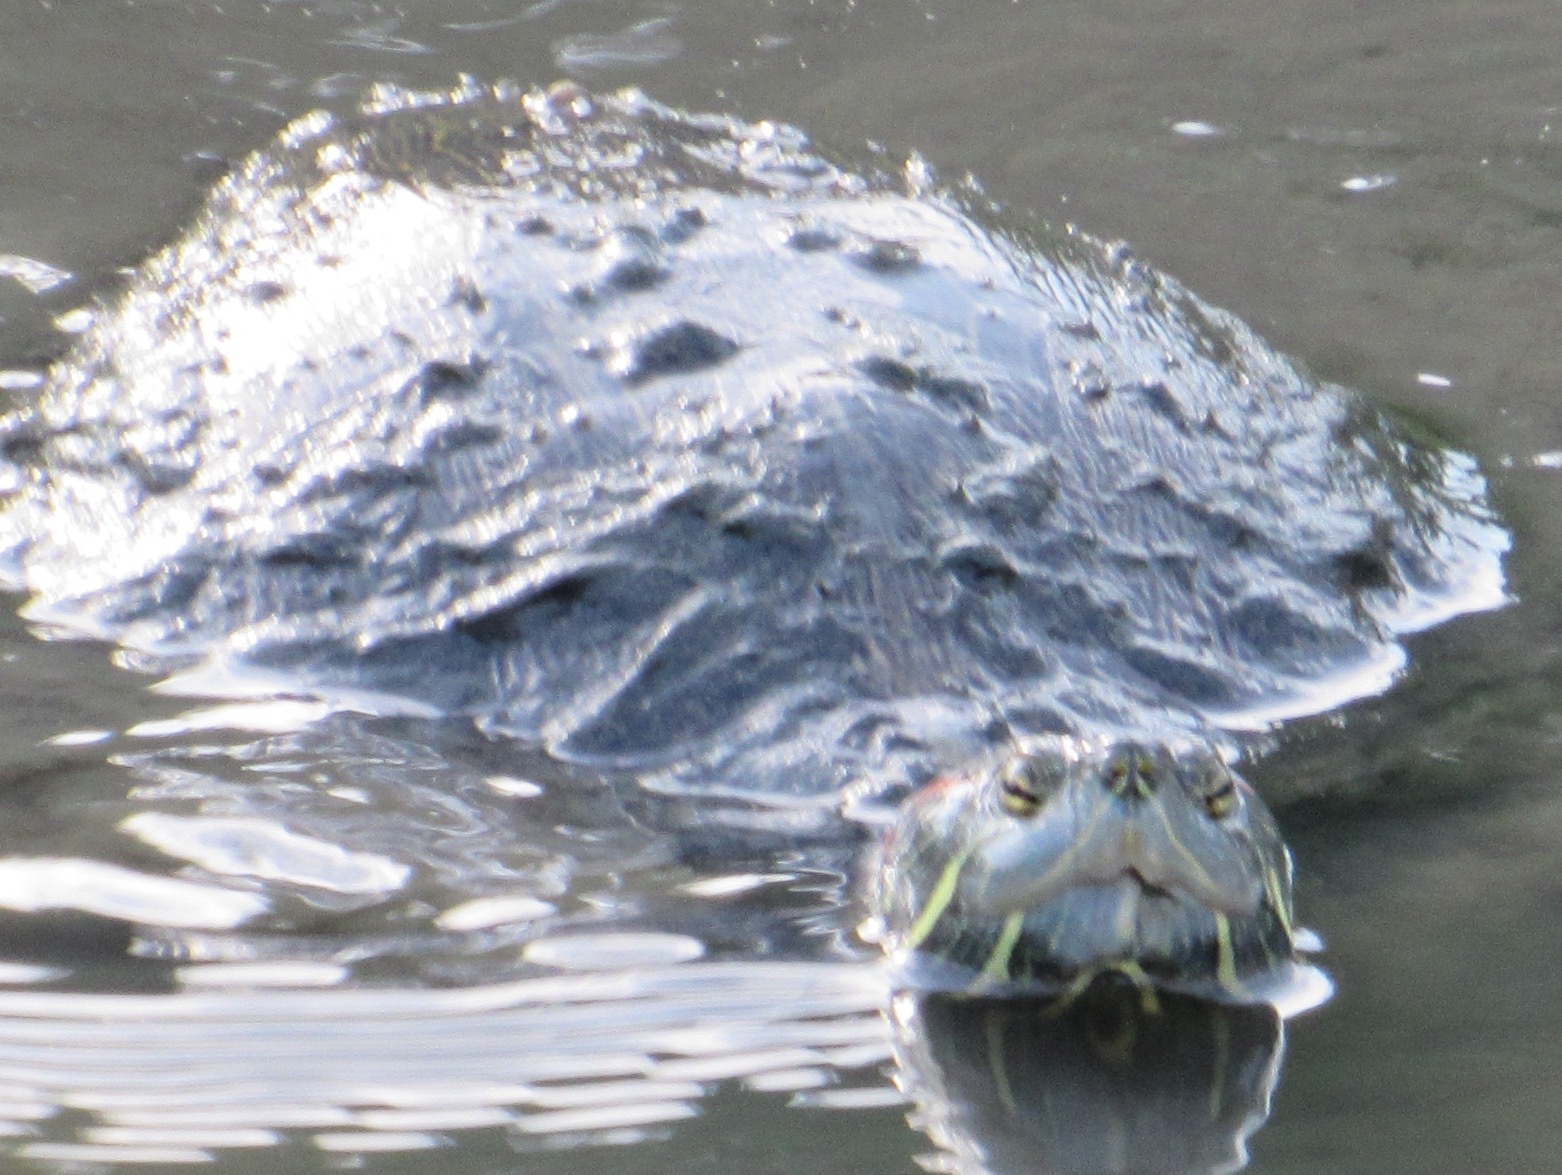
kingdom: Animalia
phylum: Chordata
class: Testudines
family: Emydidae
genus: Trachemys
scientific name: Trachemys scripta
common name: Slider
